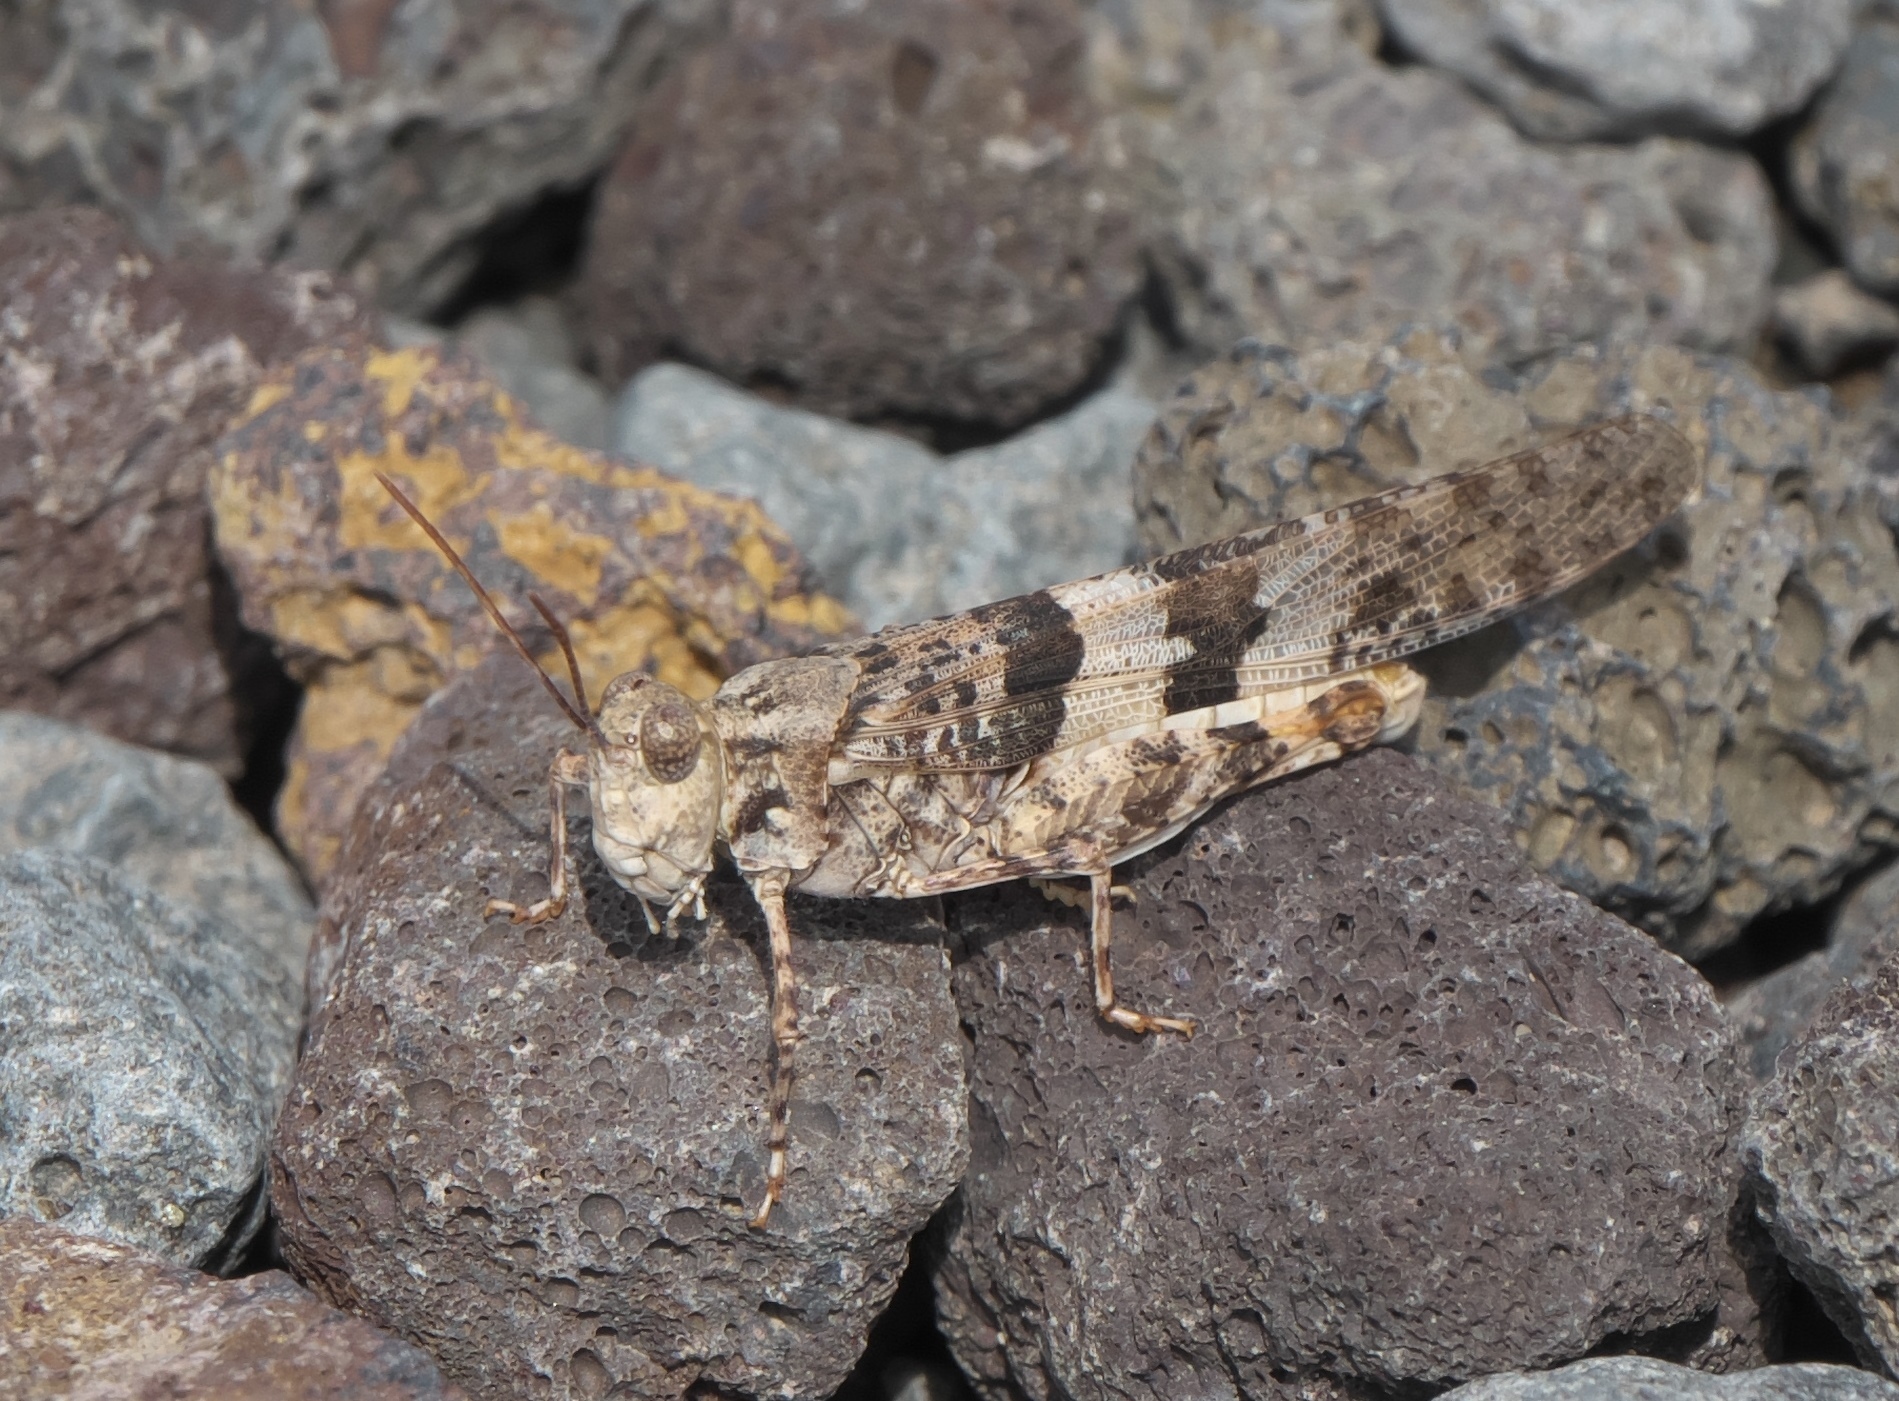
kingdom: Animalia
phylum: Arthropoda
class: Insecta
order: Orthoptera
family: Acrididae
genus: Trimerotropis
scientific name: Trimerotropis pallidipennis
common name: Pallid-winged grasshopper
